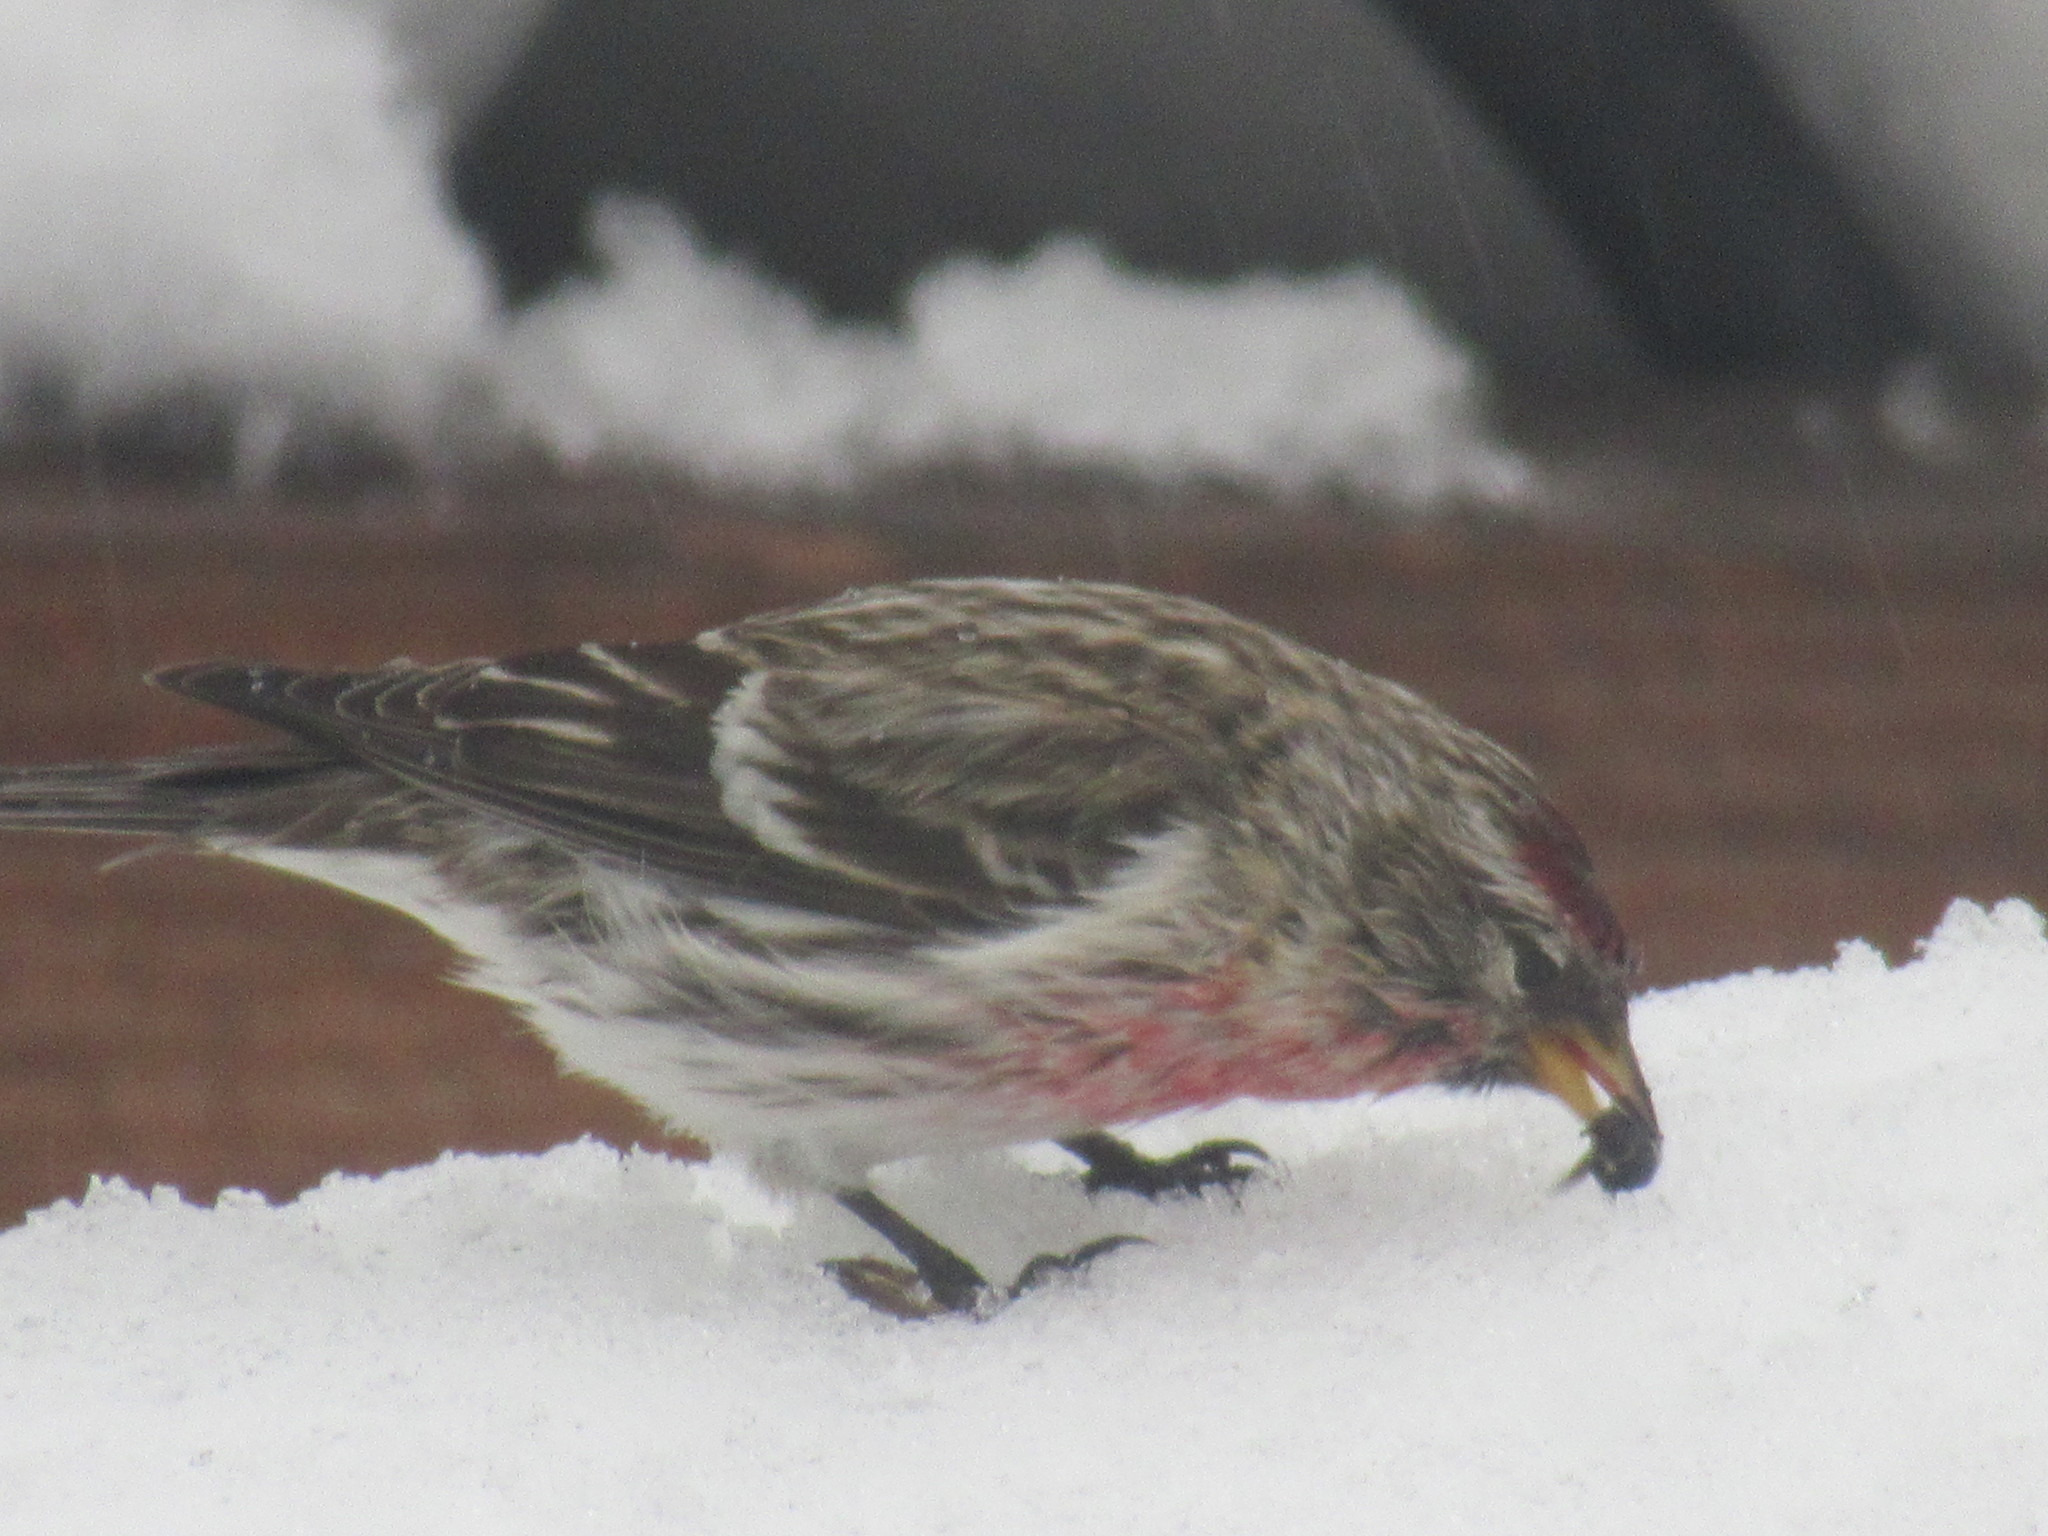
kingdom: Animalia
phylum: Chordata
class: Aves
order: Passeriformes
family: Fringillidae
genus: Acanthis
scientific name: Acanthis flammea
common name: Common redpoll
